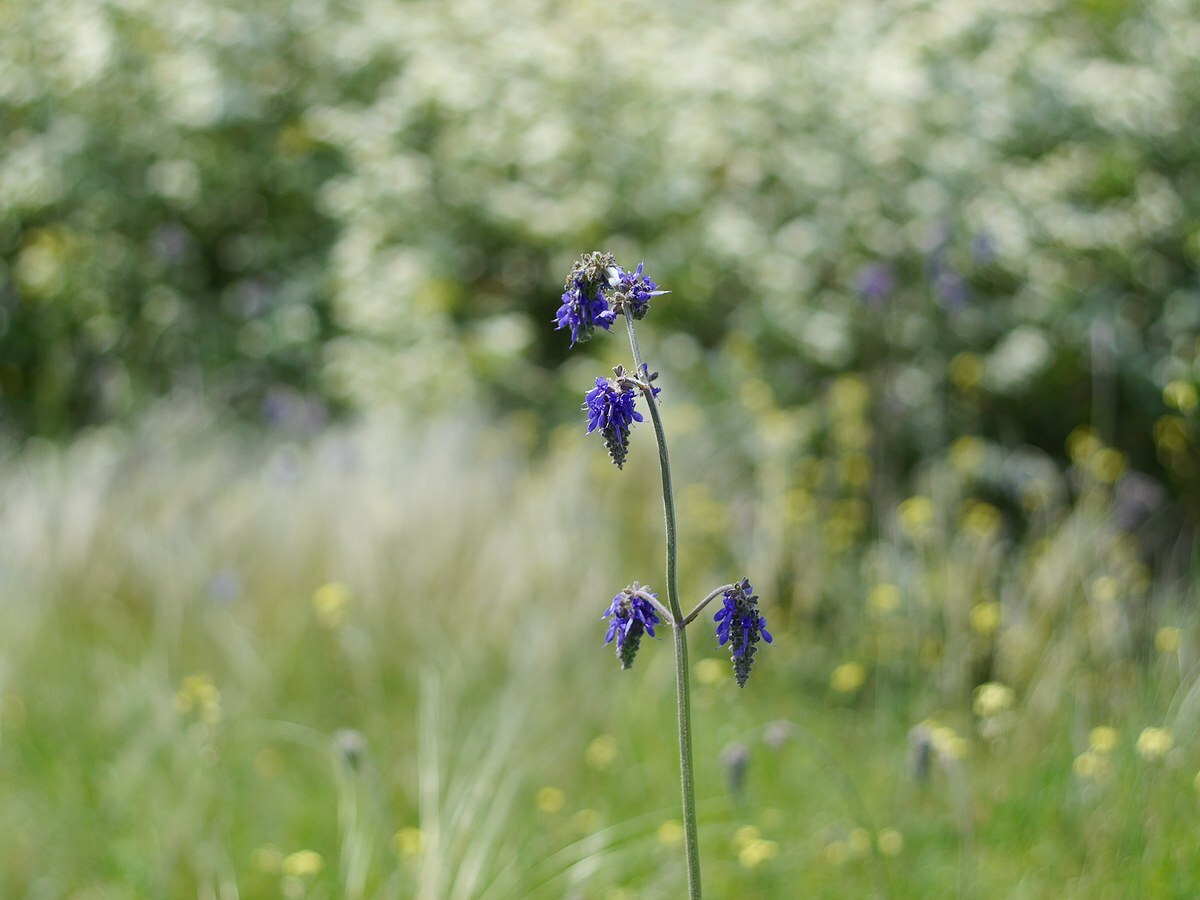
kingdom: Plantae
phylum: Tracheophyta
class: Magnoliopsida
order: Lamiales
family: Lamiaceae
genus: Salvia
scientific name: Salvia nutans
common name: Nodding sage
